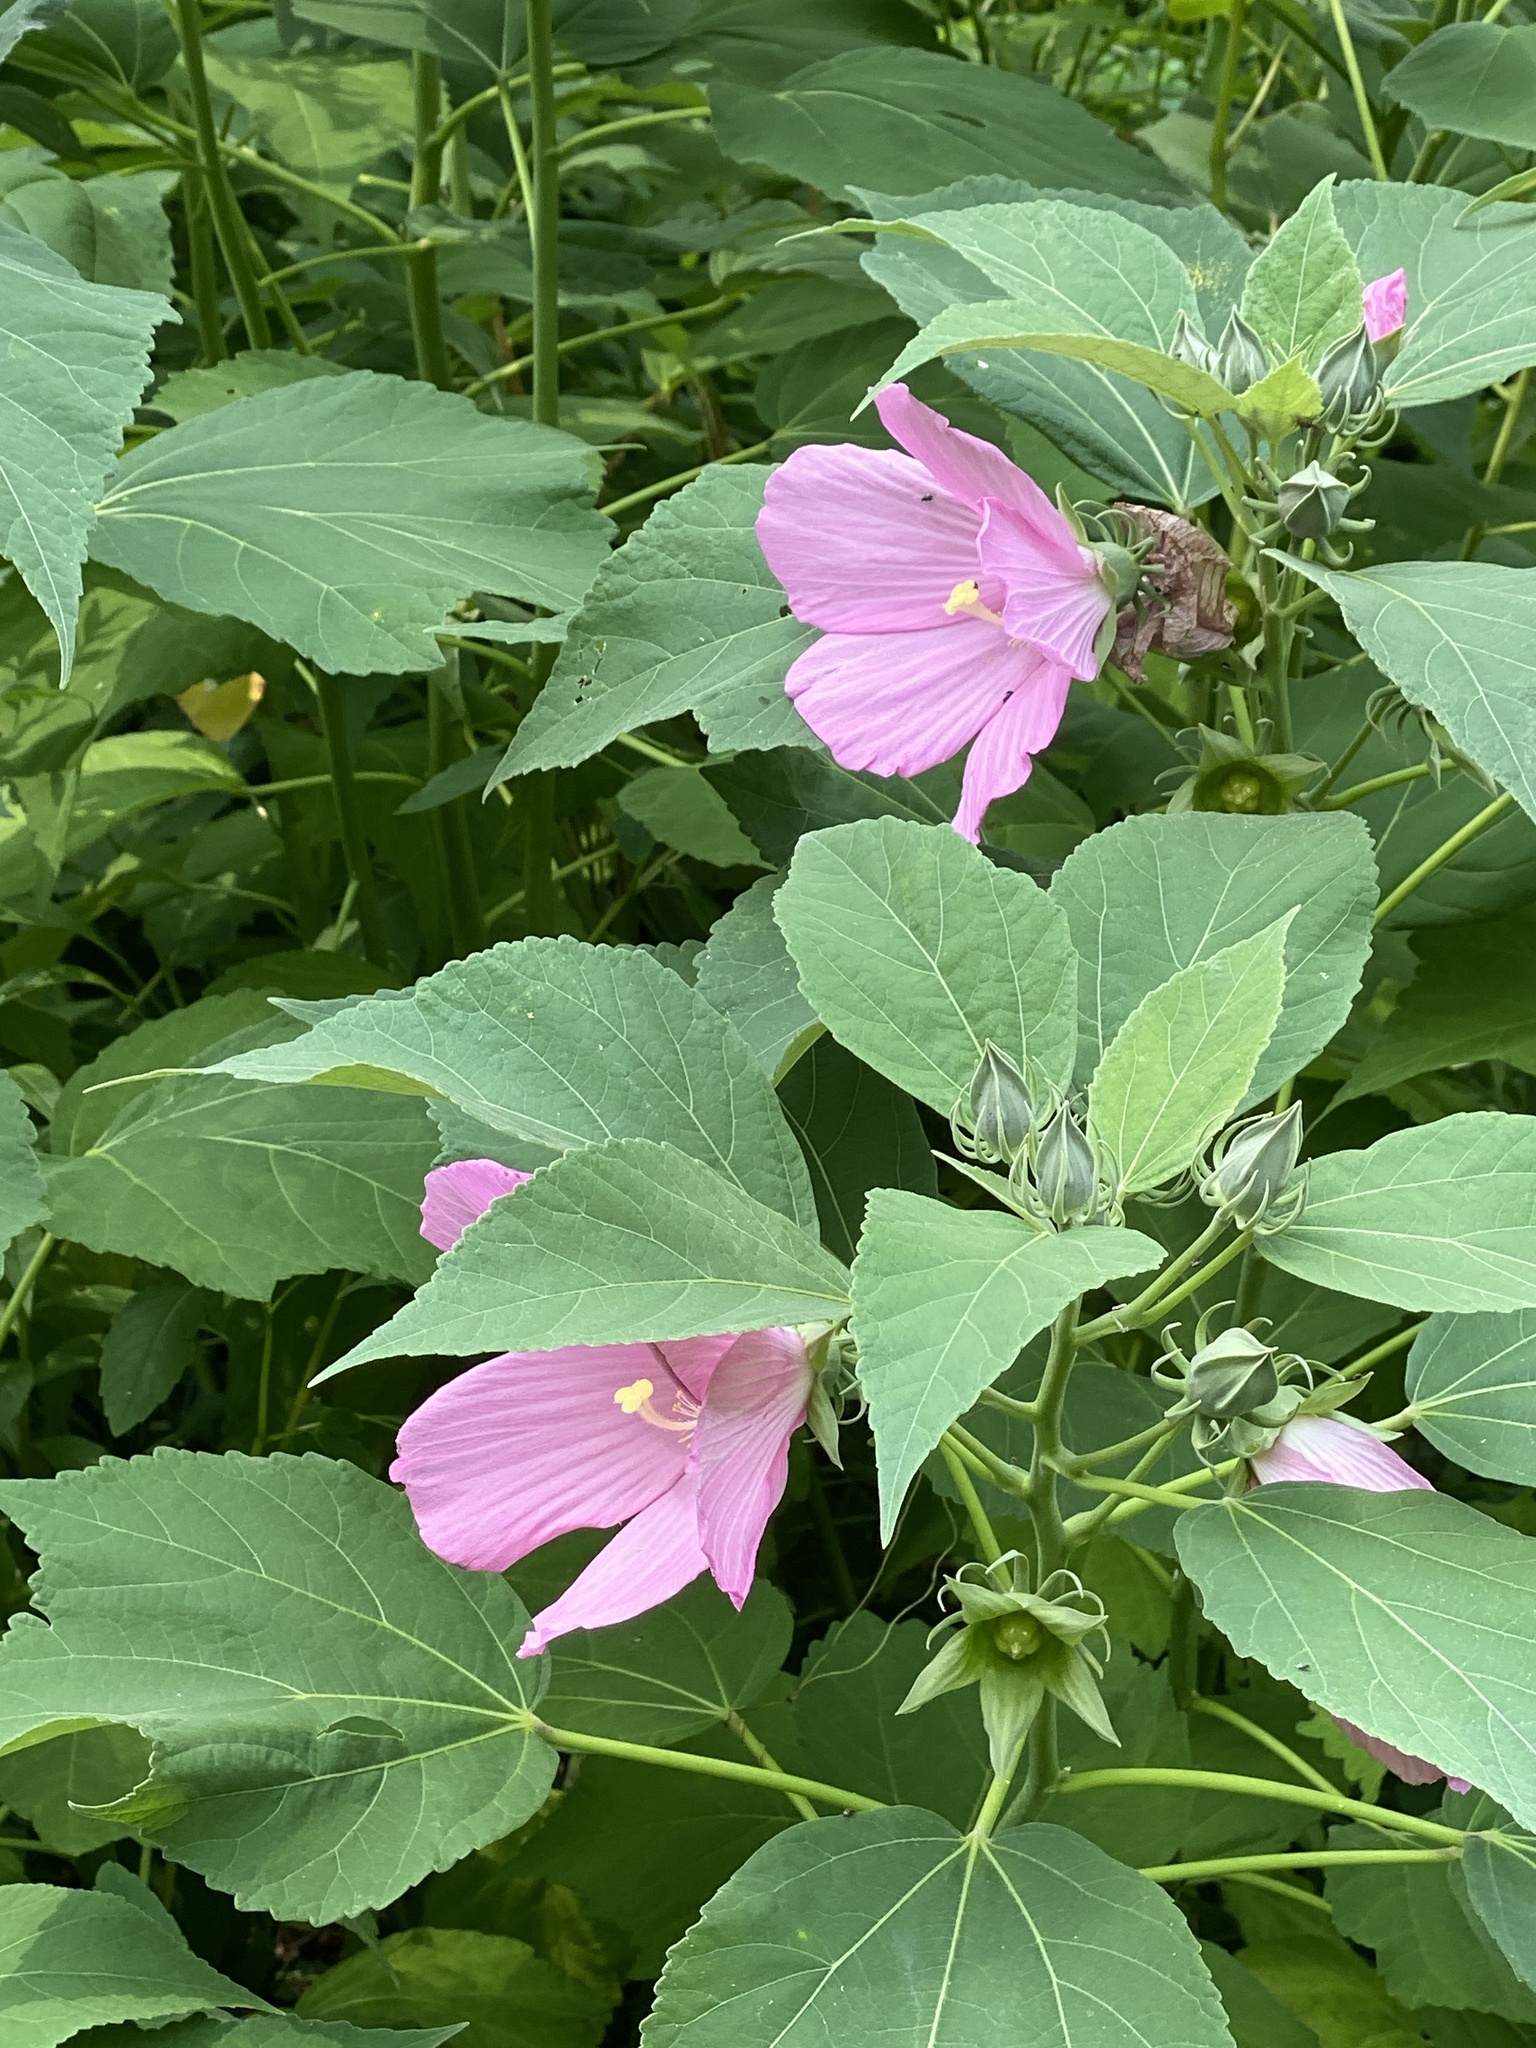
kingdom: Plantae
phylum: Tracheophyta
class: Magnoliopsida
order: Malvales
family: Malvaceae
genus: Hibiscus
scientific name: Hibiscus moscheutos
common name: Common rose-mallow
